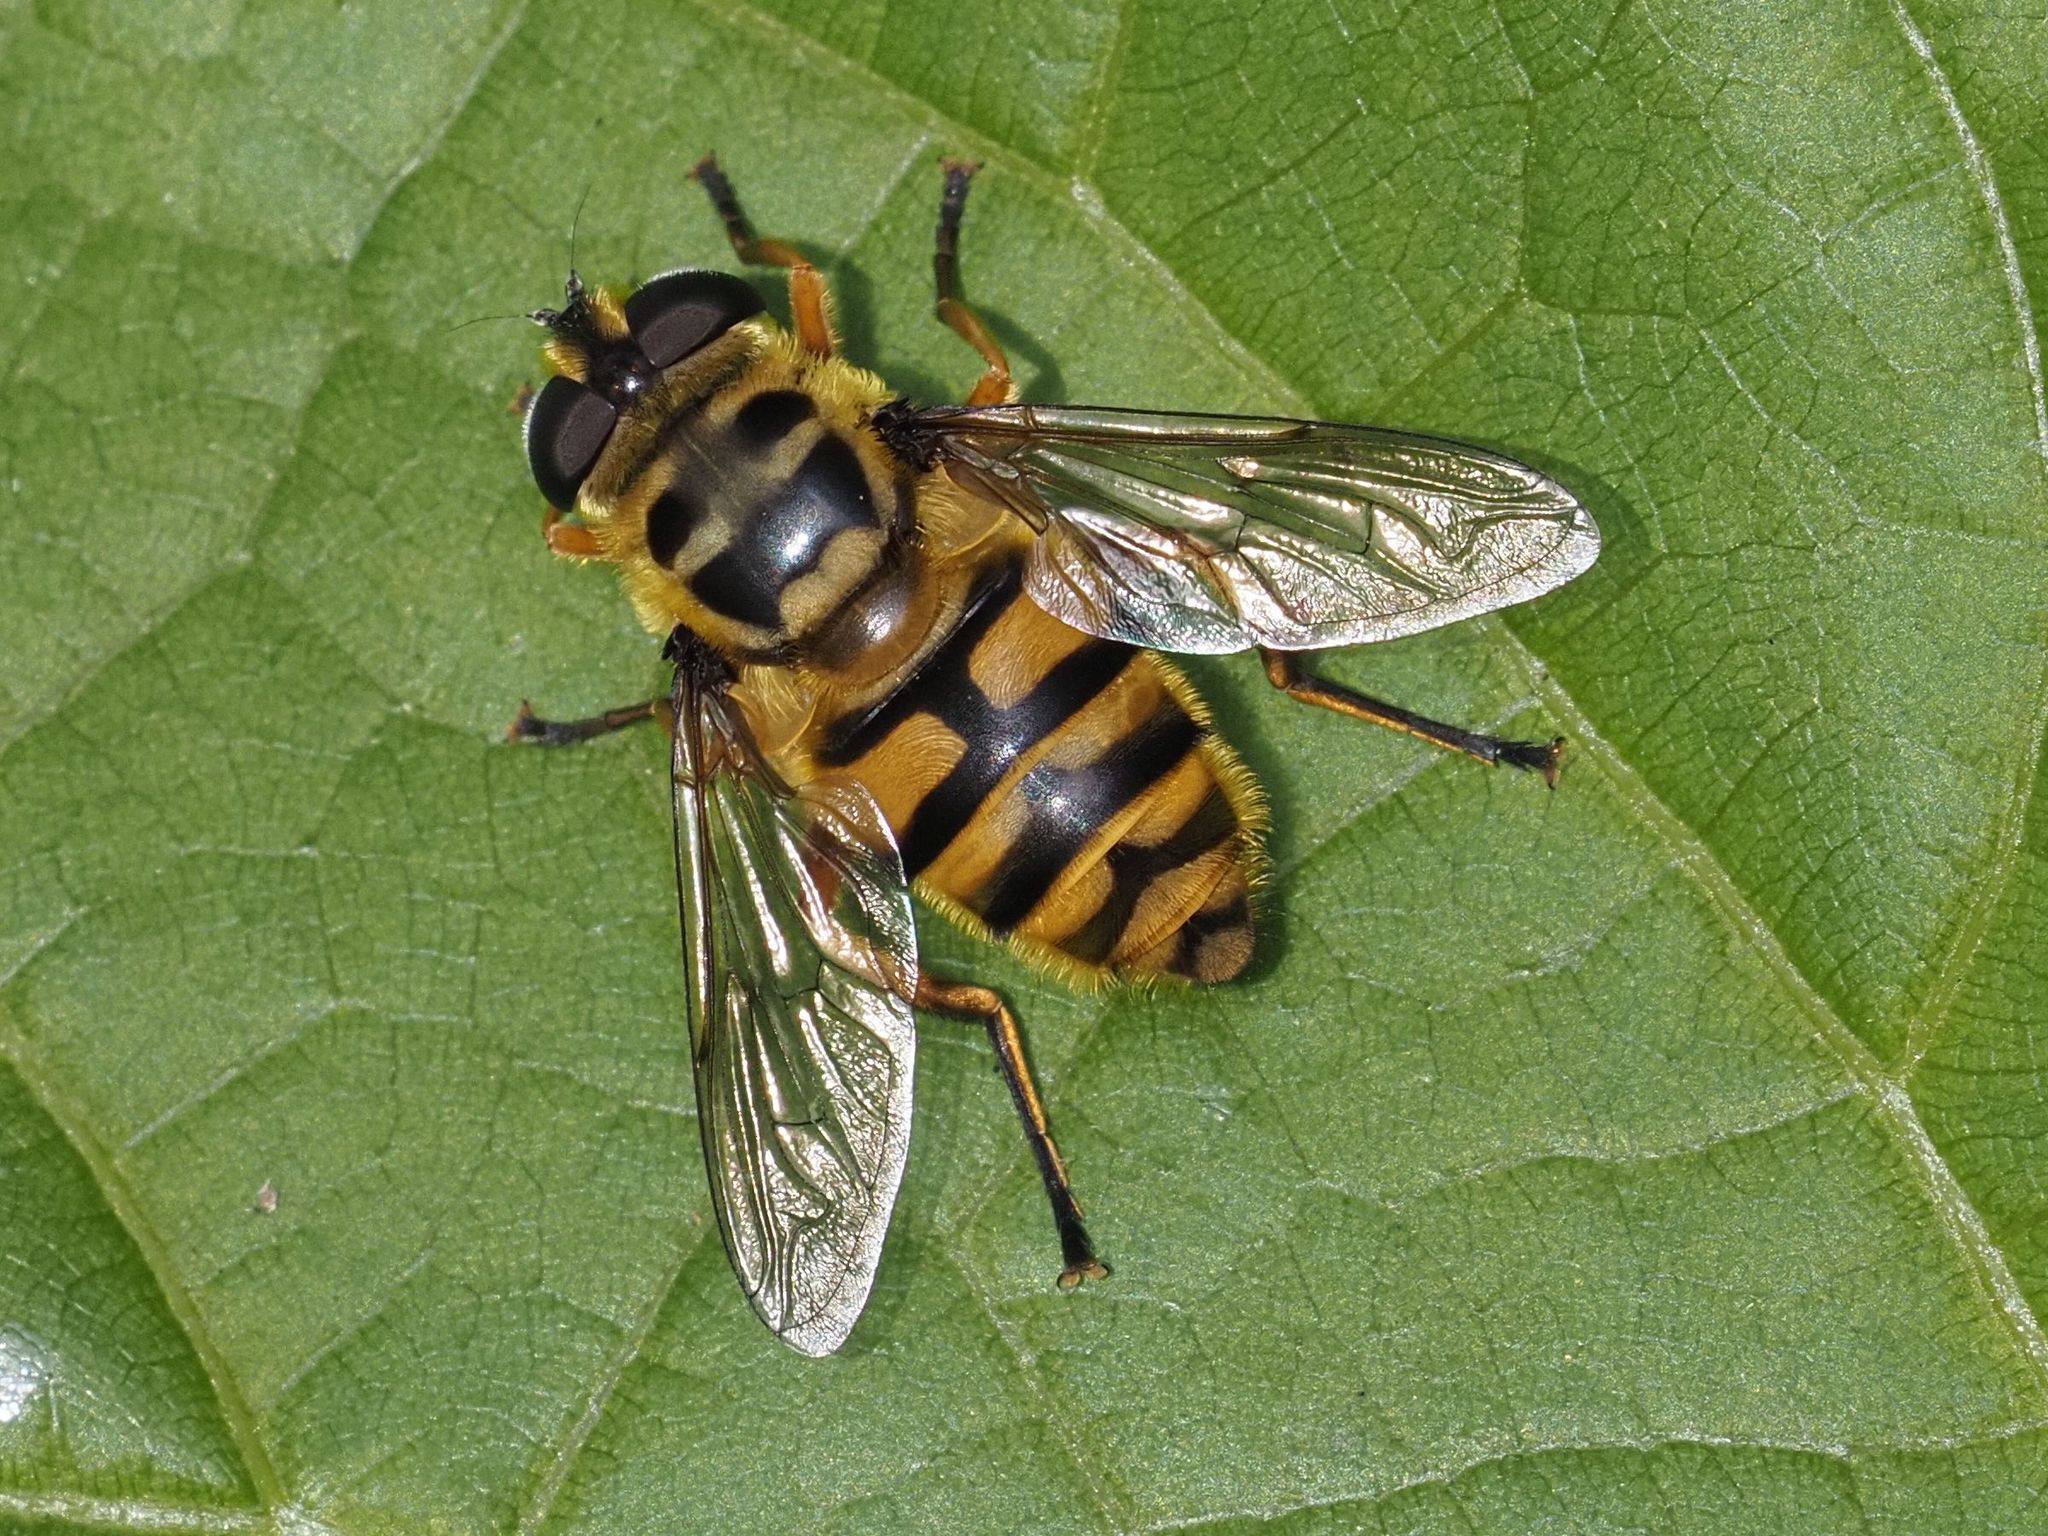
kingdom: Animalia
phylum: Arthropoda
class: Insecta
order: Diptera
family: Syrphidae
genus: Myathropa
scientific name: Myathropa florea
